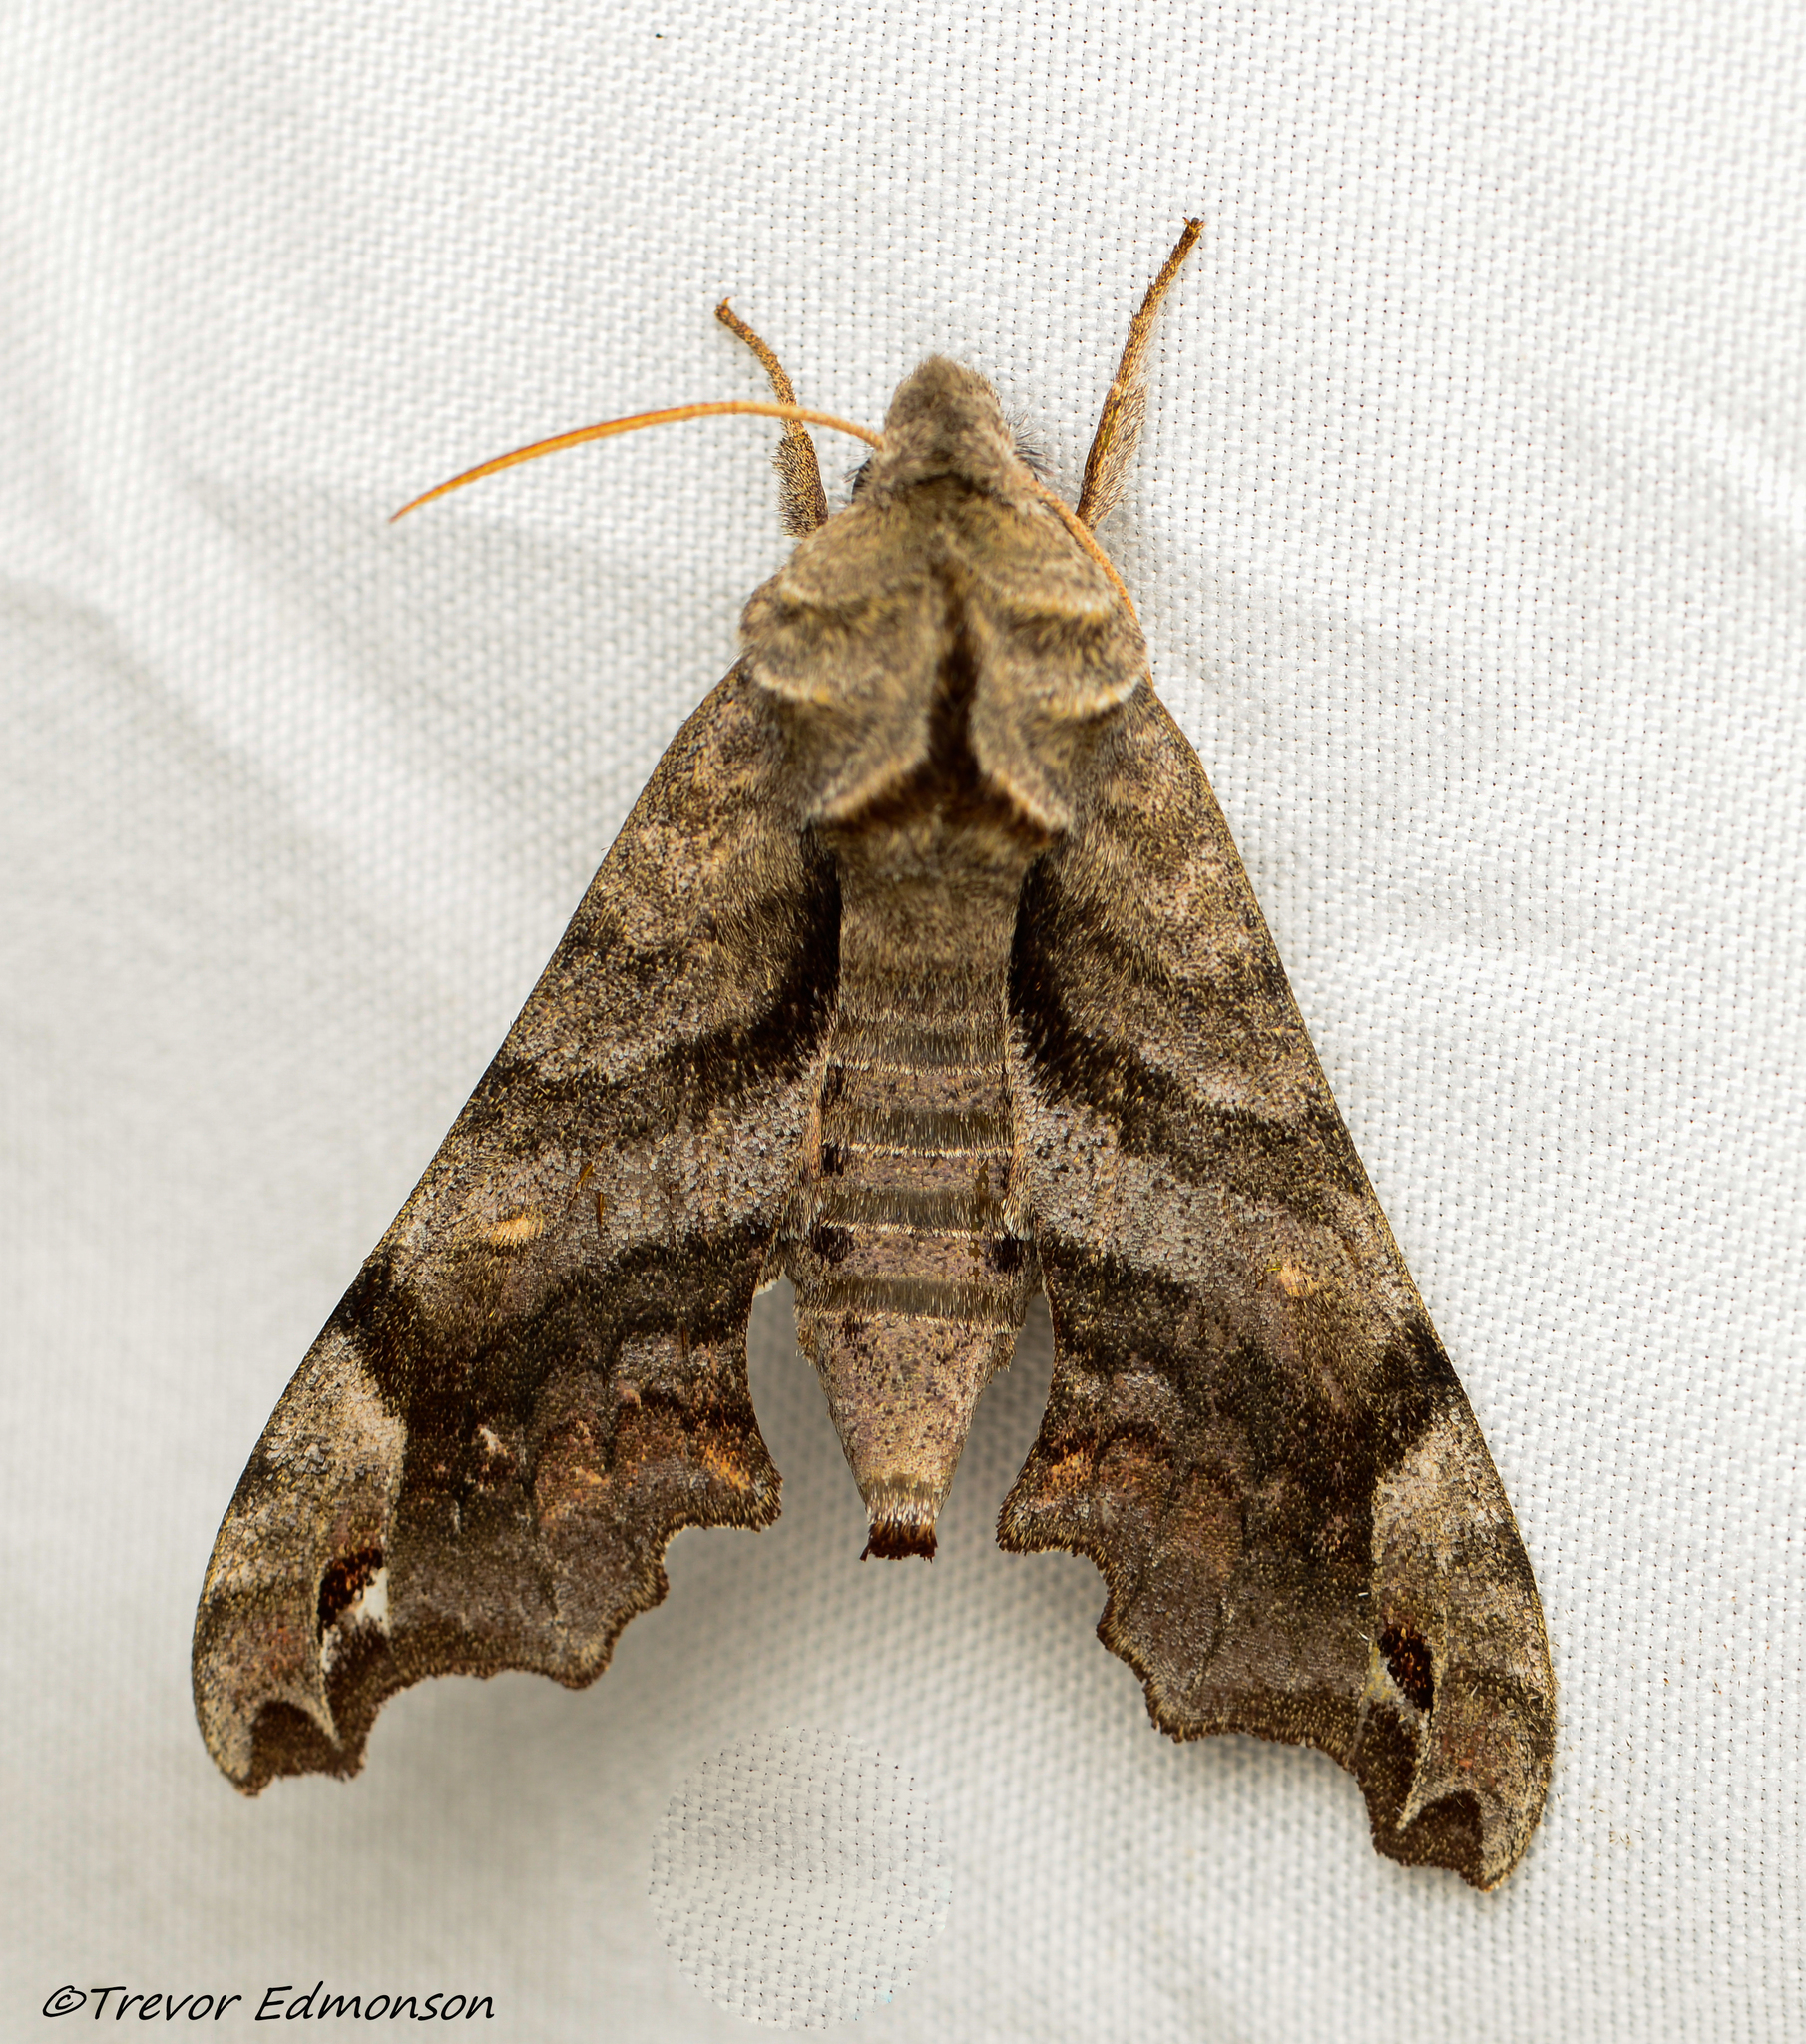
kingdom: Animalia
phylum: Arthropoda
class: Insecta
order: Lepidoptera
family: Sphingidae
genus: Deidamia
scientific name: Deidamia inscriptum
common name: Lettered sphinx
